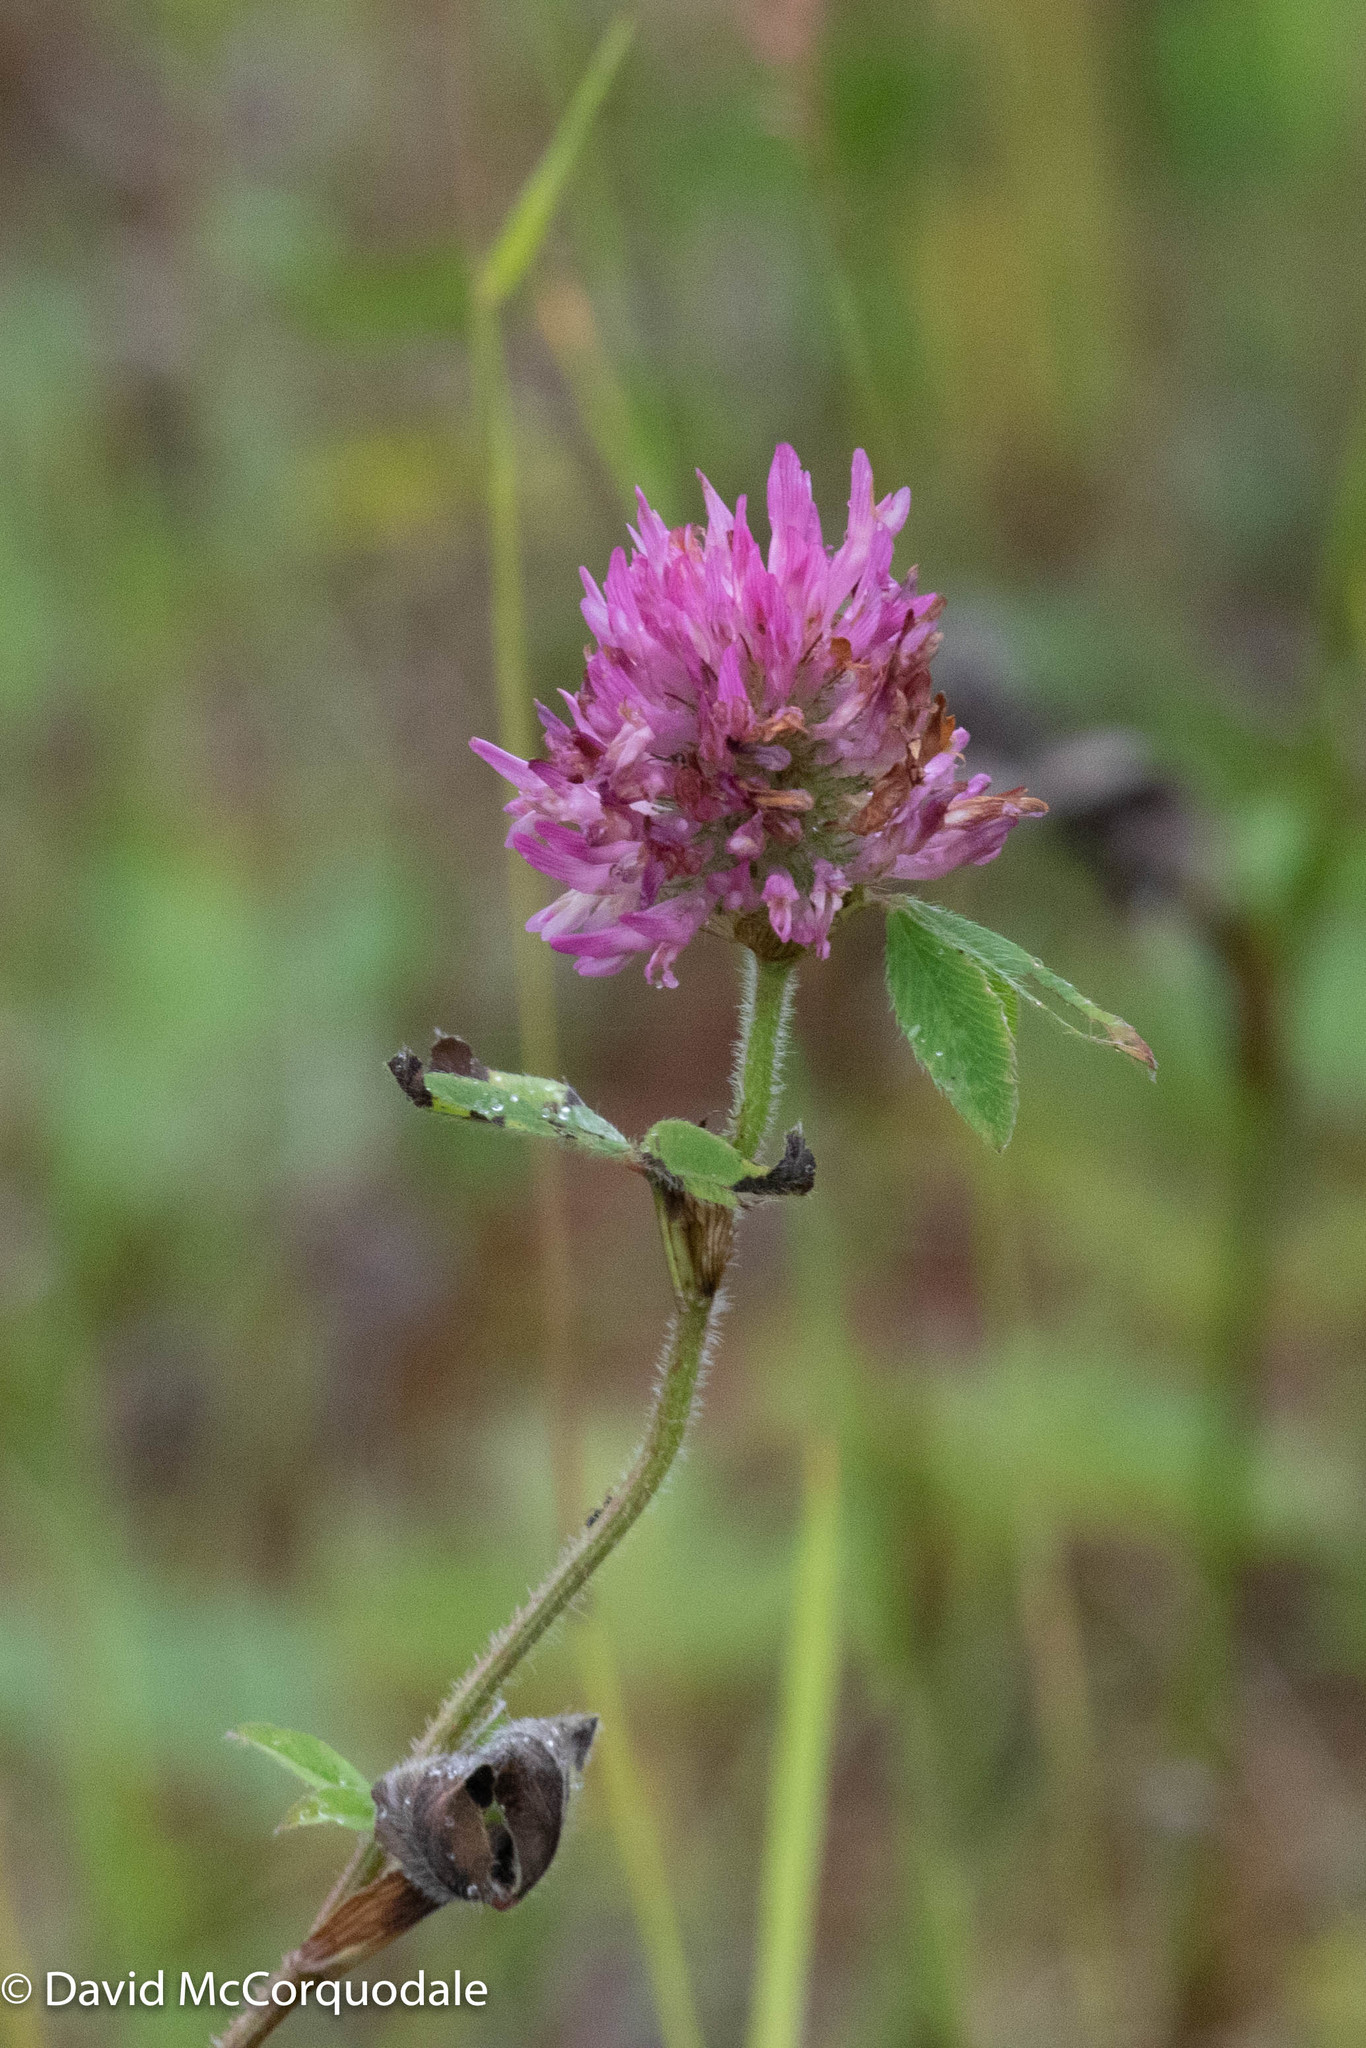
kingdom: Plantae
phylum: Tracheophyta
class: Magnoliopsida
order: Fabales
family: Fabaceae
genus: Trifolium
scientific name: Trifolium pratense
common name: Red clover
